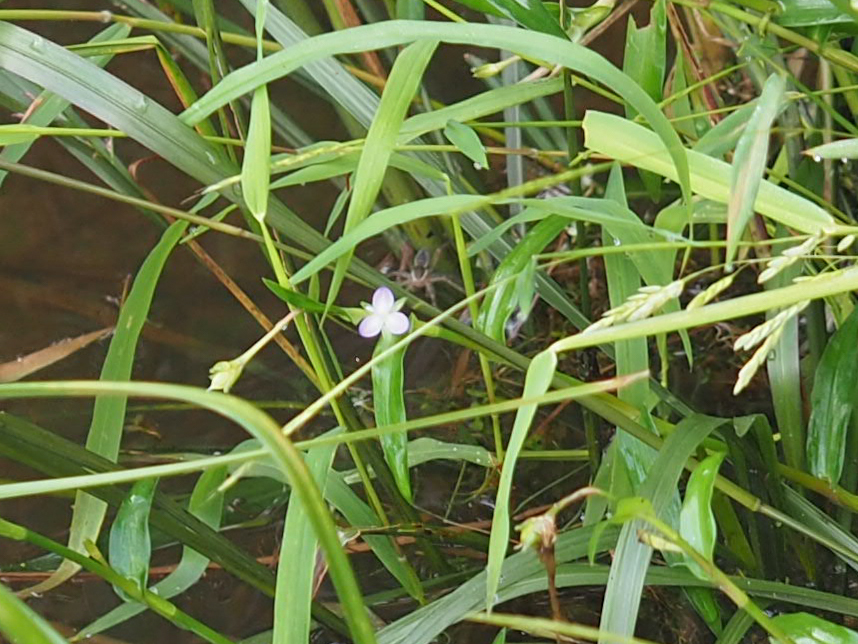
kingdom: Plantae
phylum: Tracheophyta
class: Liliopsida
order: Commelinales
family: Commelinaceae
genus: Murdannia
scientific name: Murdannia keisak
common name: Wartremoving herb
